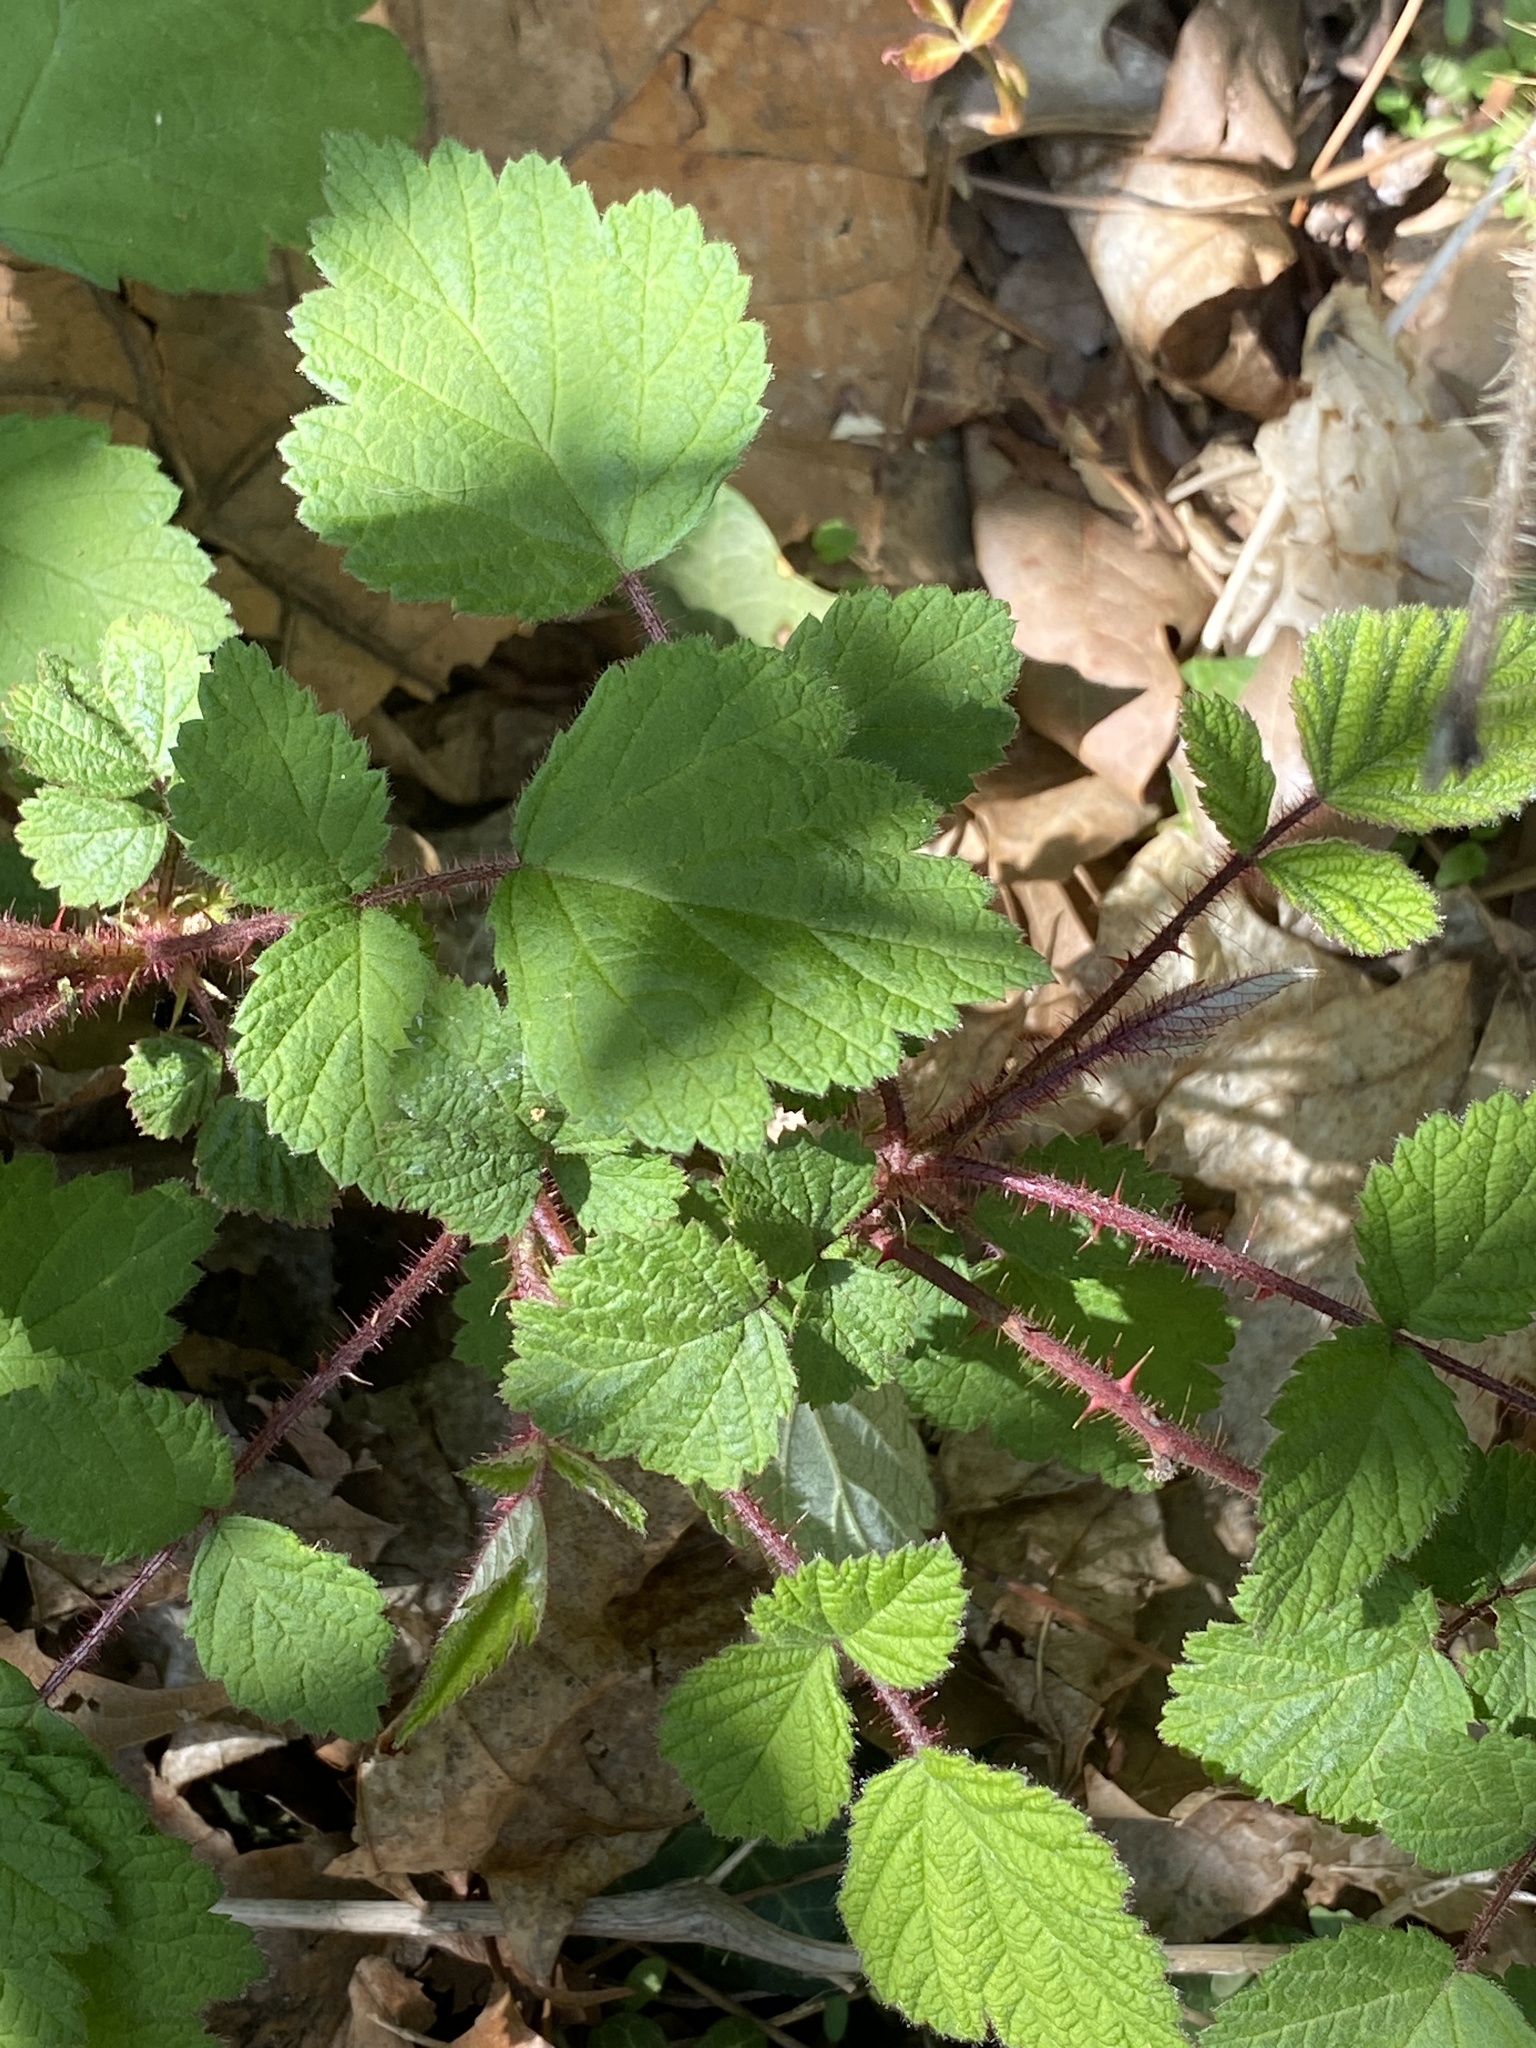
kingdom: Plantae
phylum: Tracheophyta
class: Magnoliopsida
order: Rosales
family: Rosaceae
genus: Rubus
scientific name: Rubus phoenicolasius
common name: Japanese wineberry
